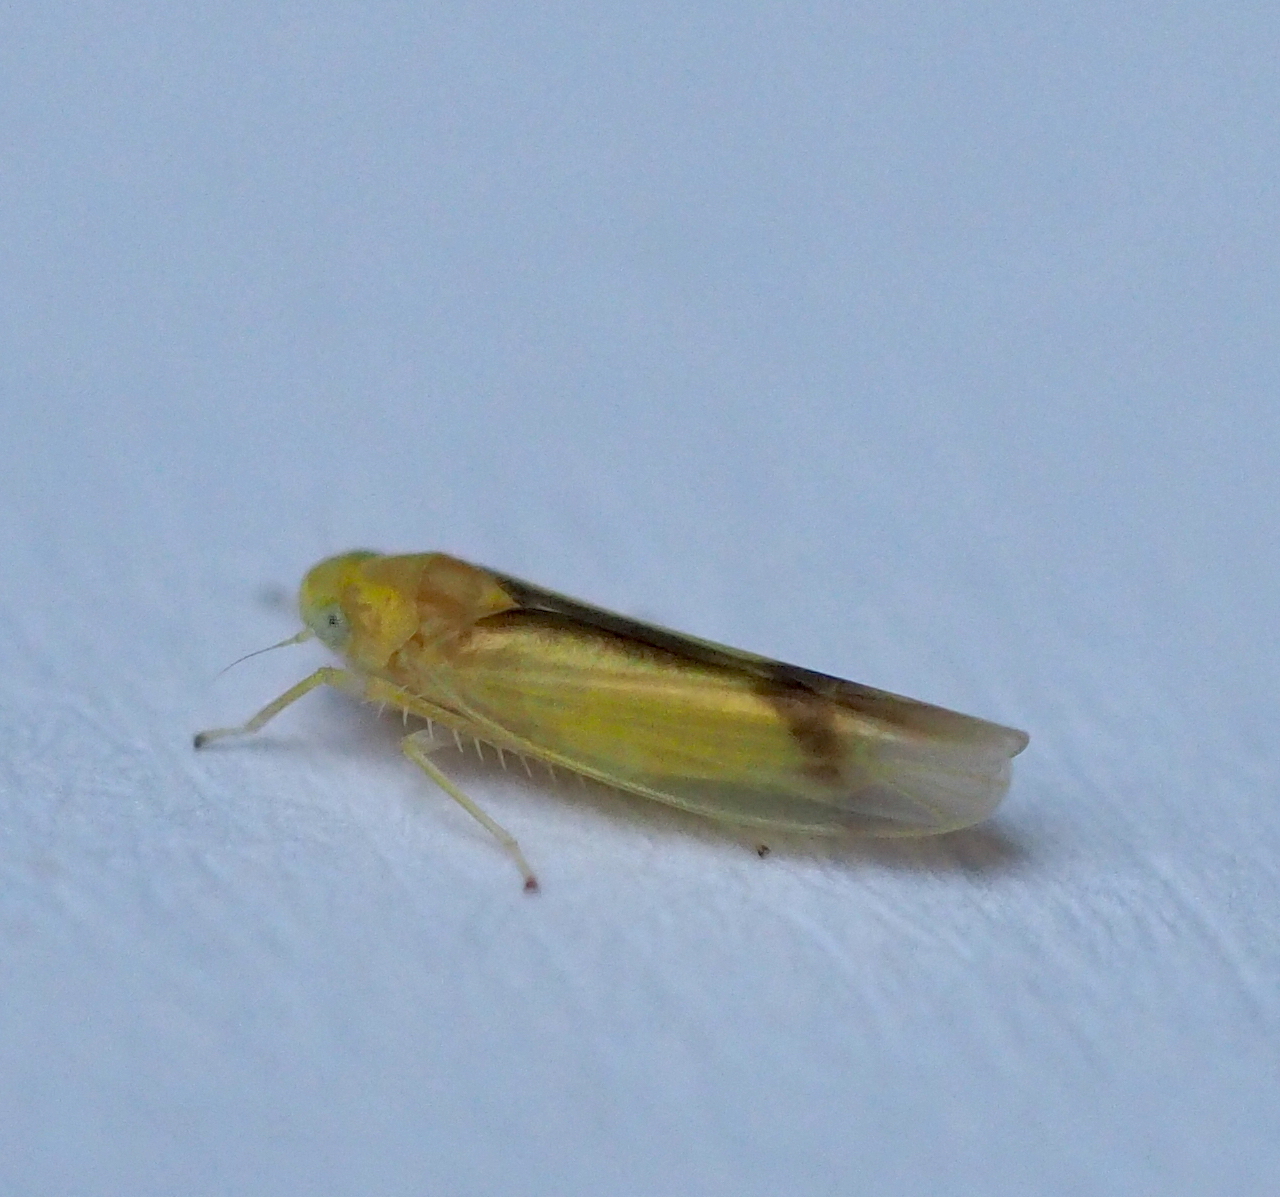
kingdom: Animalia
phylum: Arthropoda
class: Insecta
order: Hemiptera
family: Cicadellidae
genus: Ossiannilssonola
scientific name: Ossiannilssonola callosa
